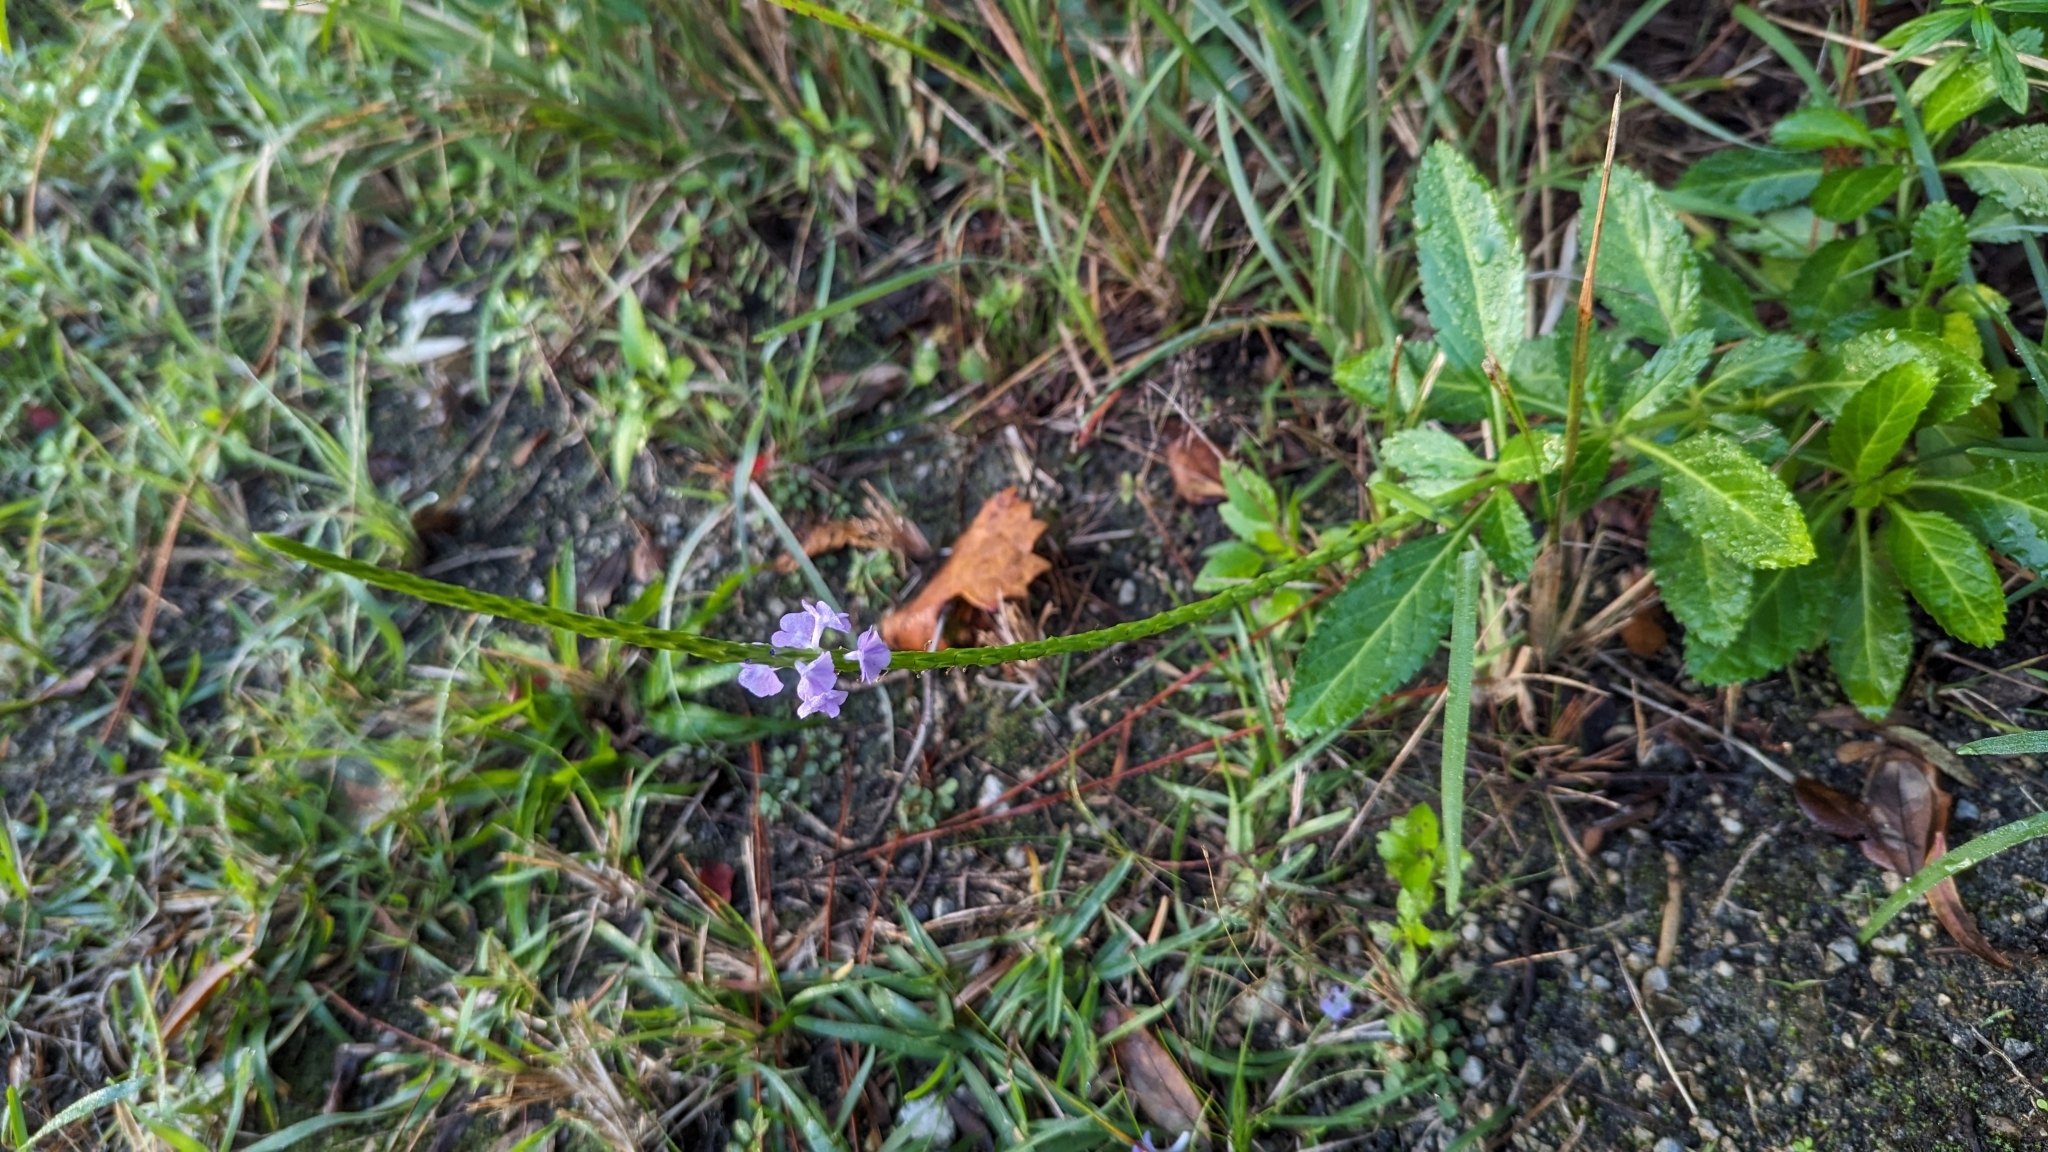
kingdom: Plantae
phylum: Tracheophyta
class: Magnoliopsida
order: Lamiales
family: Verbenaceae
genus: Stachytarpheta
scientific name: Stachytarpheta jamaicensis
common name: Light-blue snakeweed
